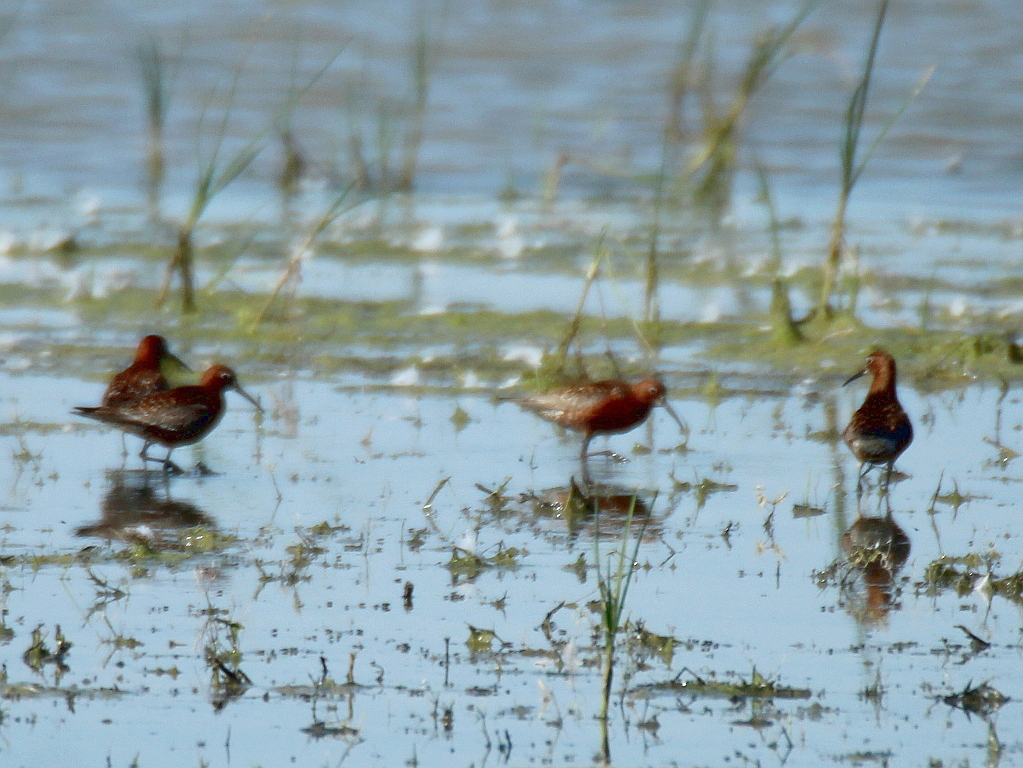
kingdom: Animalia
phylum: Chordata
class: Aves
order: Charadriiformes
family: Scolopacidae
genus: Calidris
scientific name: Calidris ferruginea
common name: Curlew sandpiper
